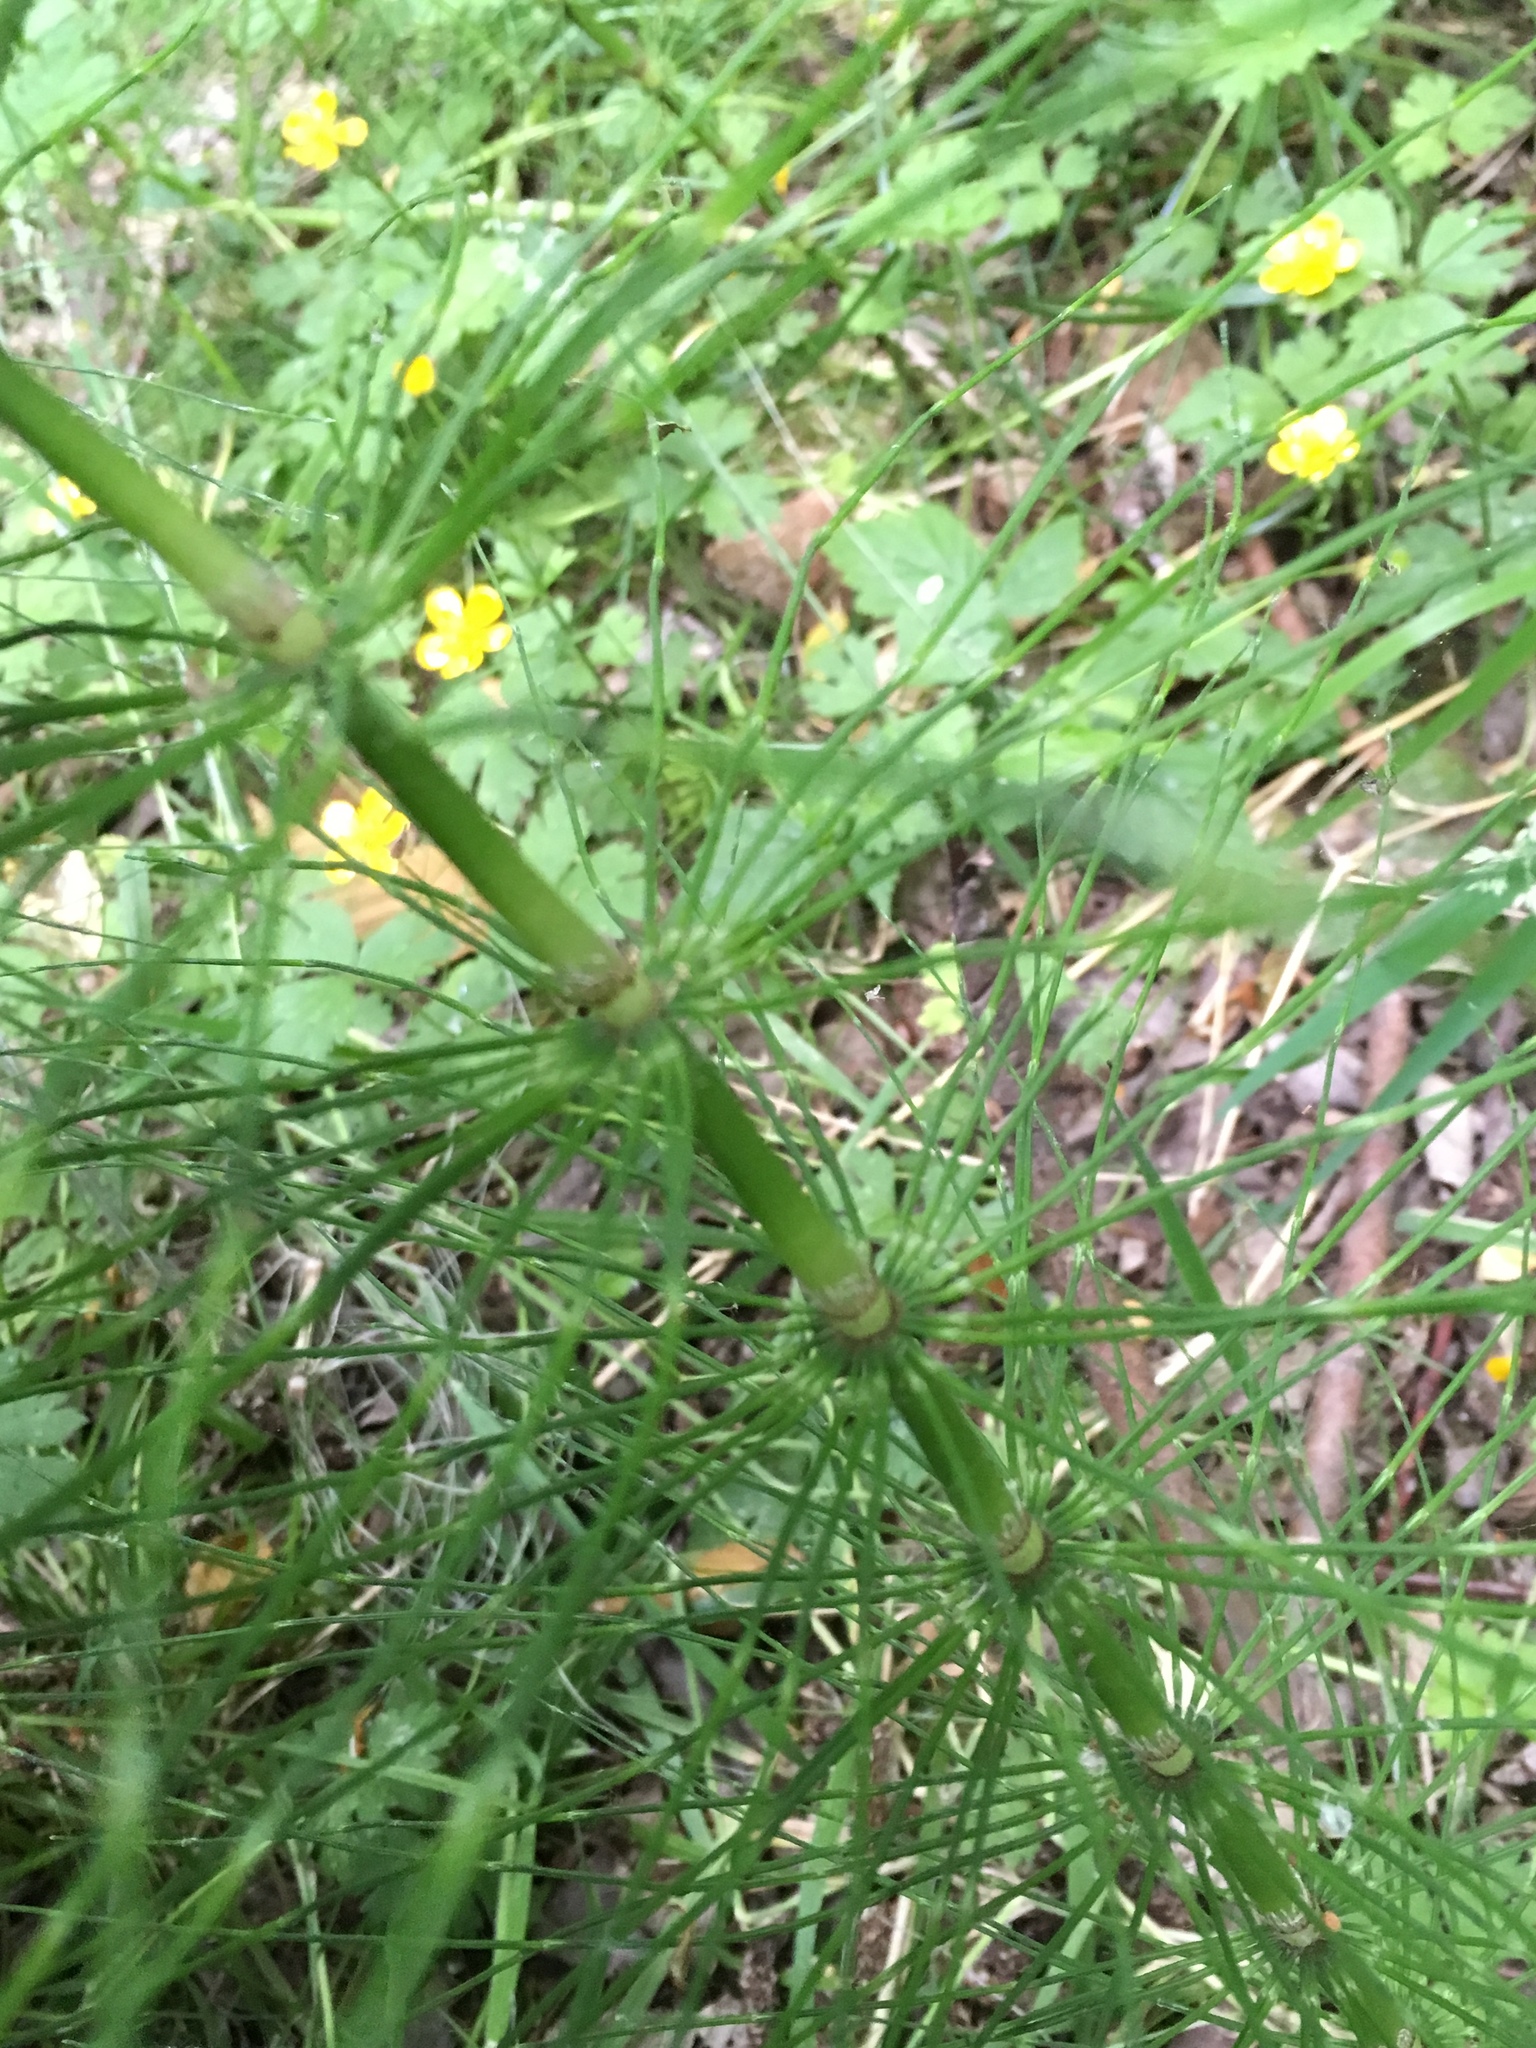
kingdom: Plantae
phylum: Tracheophyta
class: Polypodiopsida
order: Equisetales
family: Equisetaceae
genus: Equisetum
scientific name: Equisetum braunii
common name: Braun's horsetail
